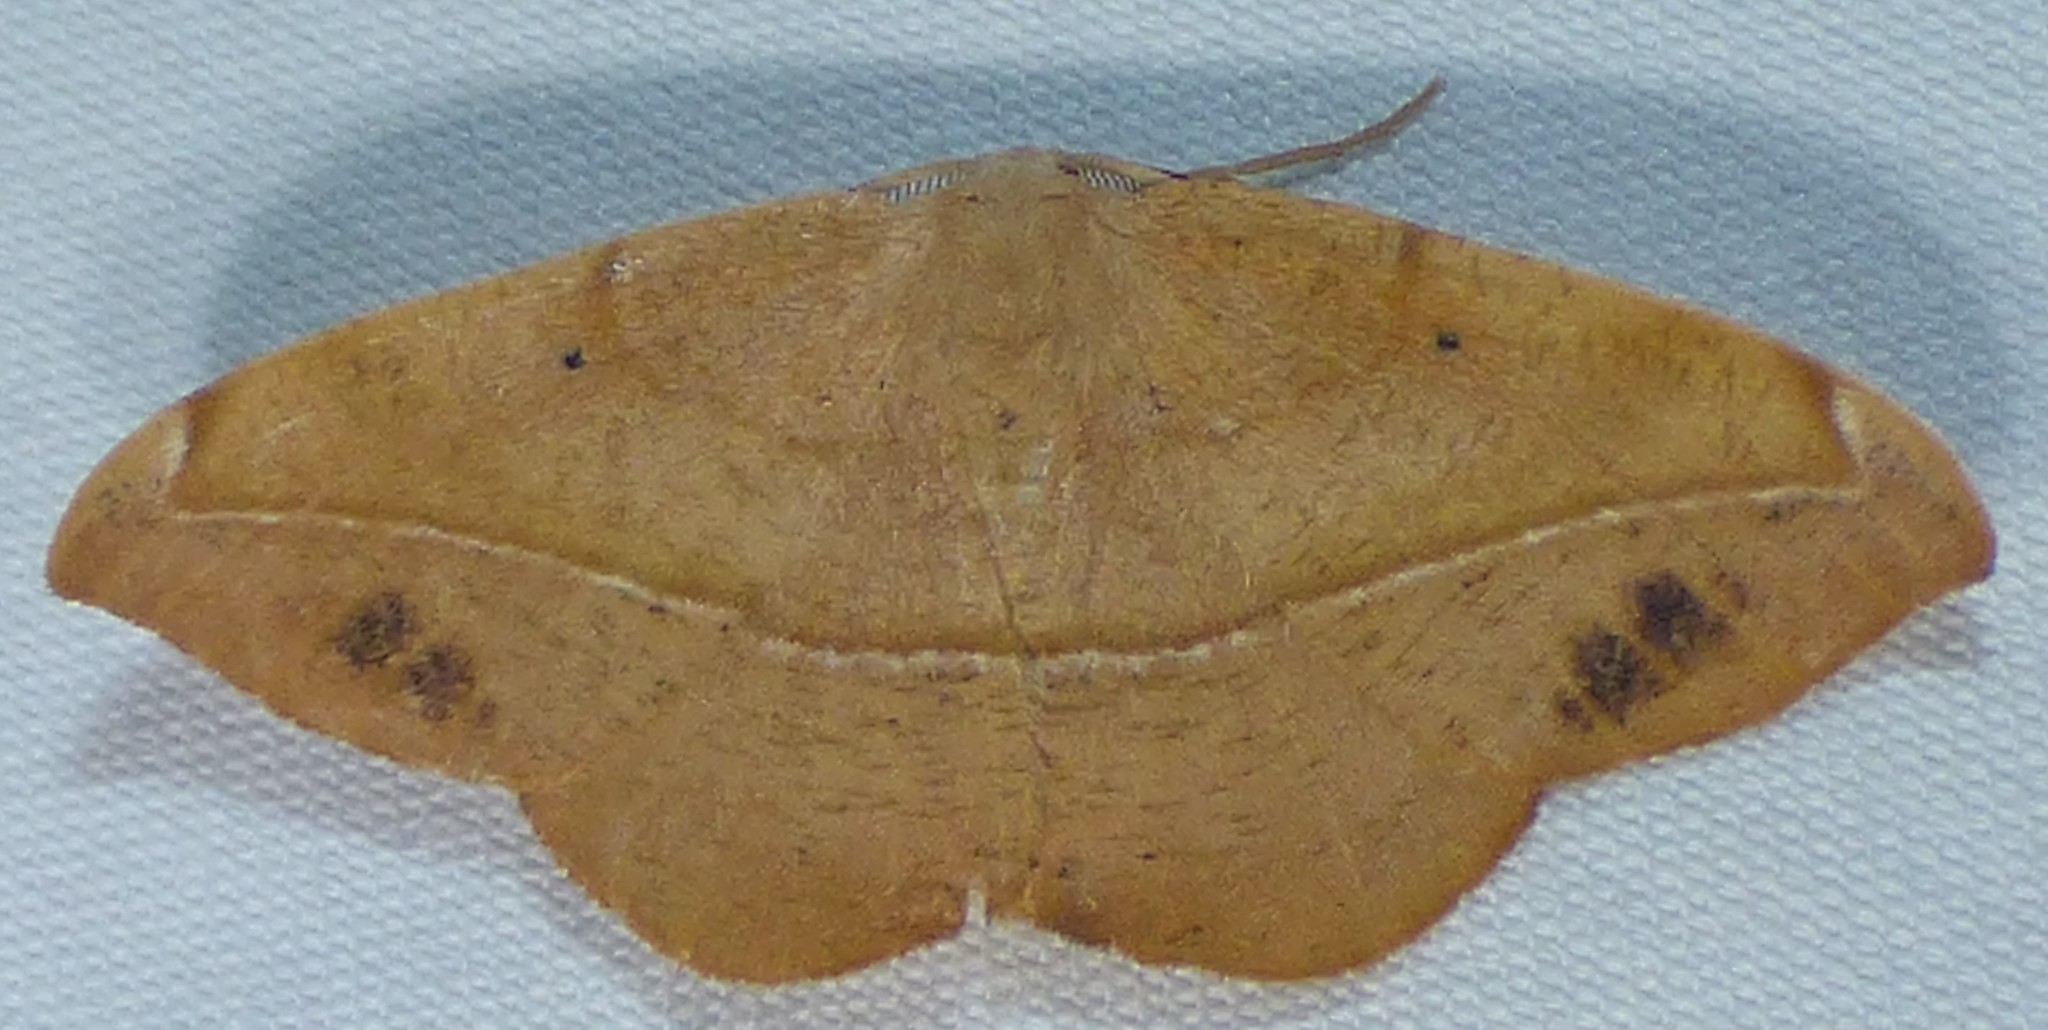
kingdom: Animalia
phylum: Arthropoda
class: Insecta
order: Lepidoptera
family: Geometridae
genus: Patalene
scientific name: Patalene olyzonaria
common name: Juniper geometer moth
